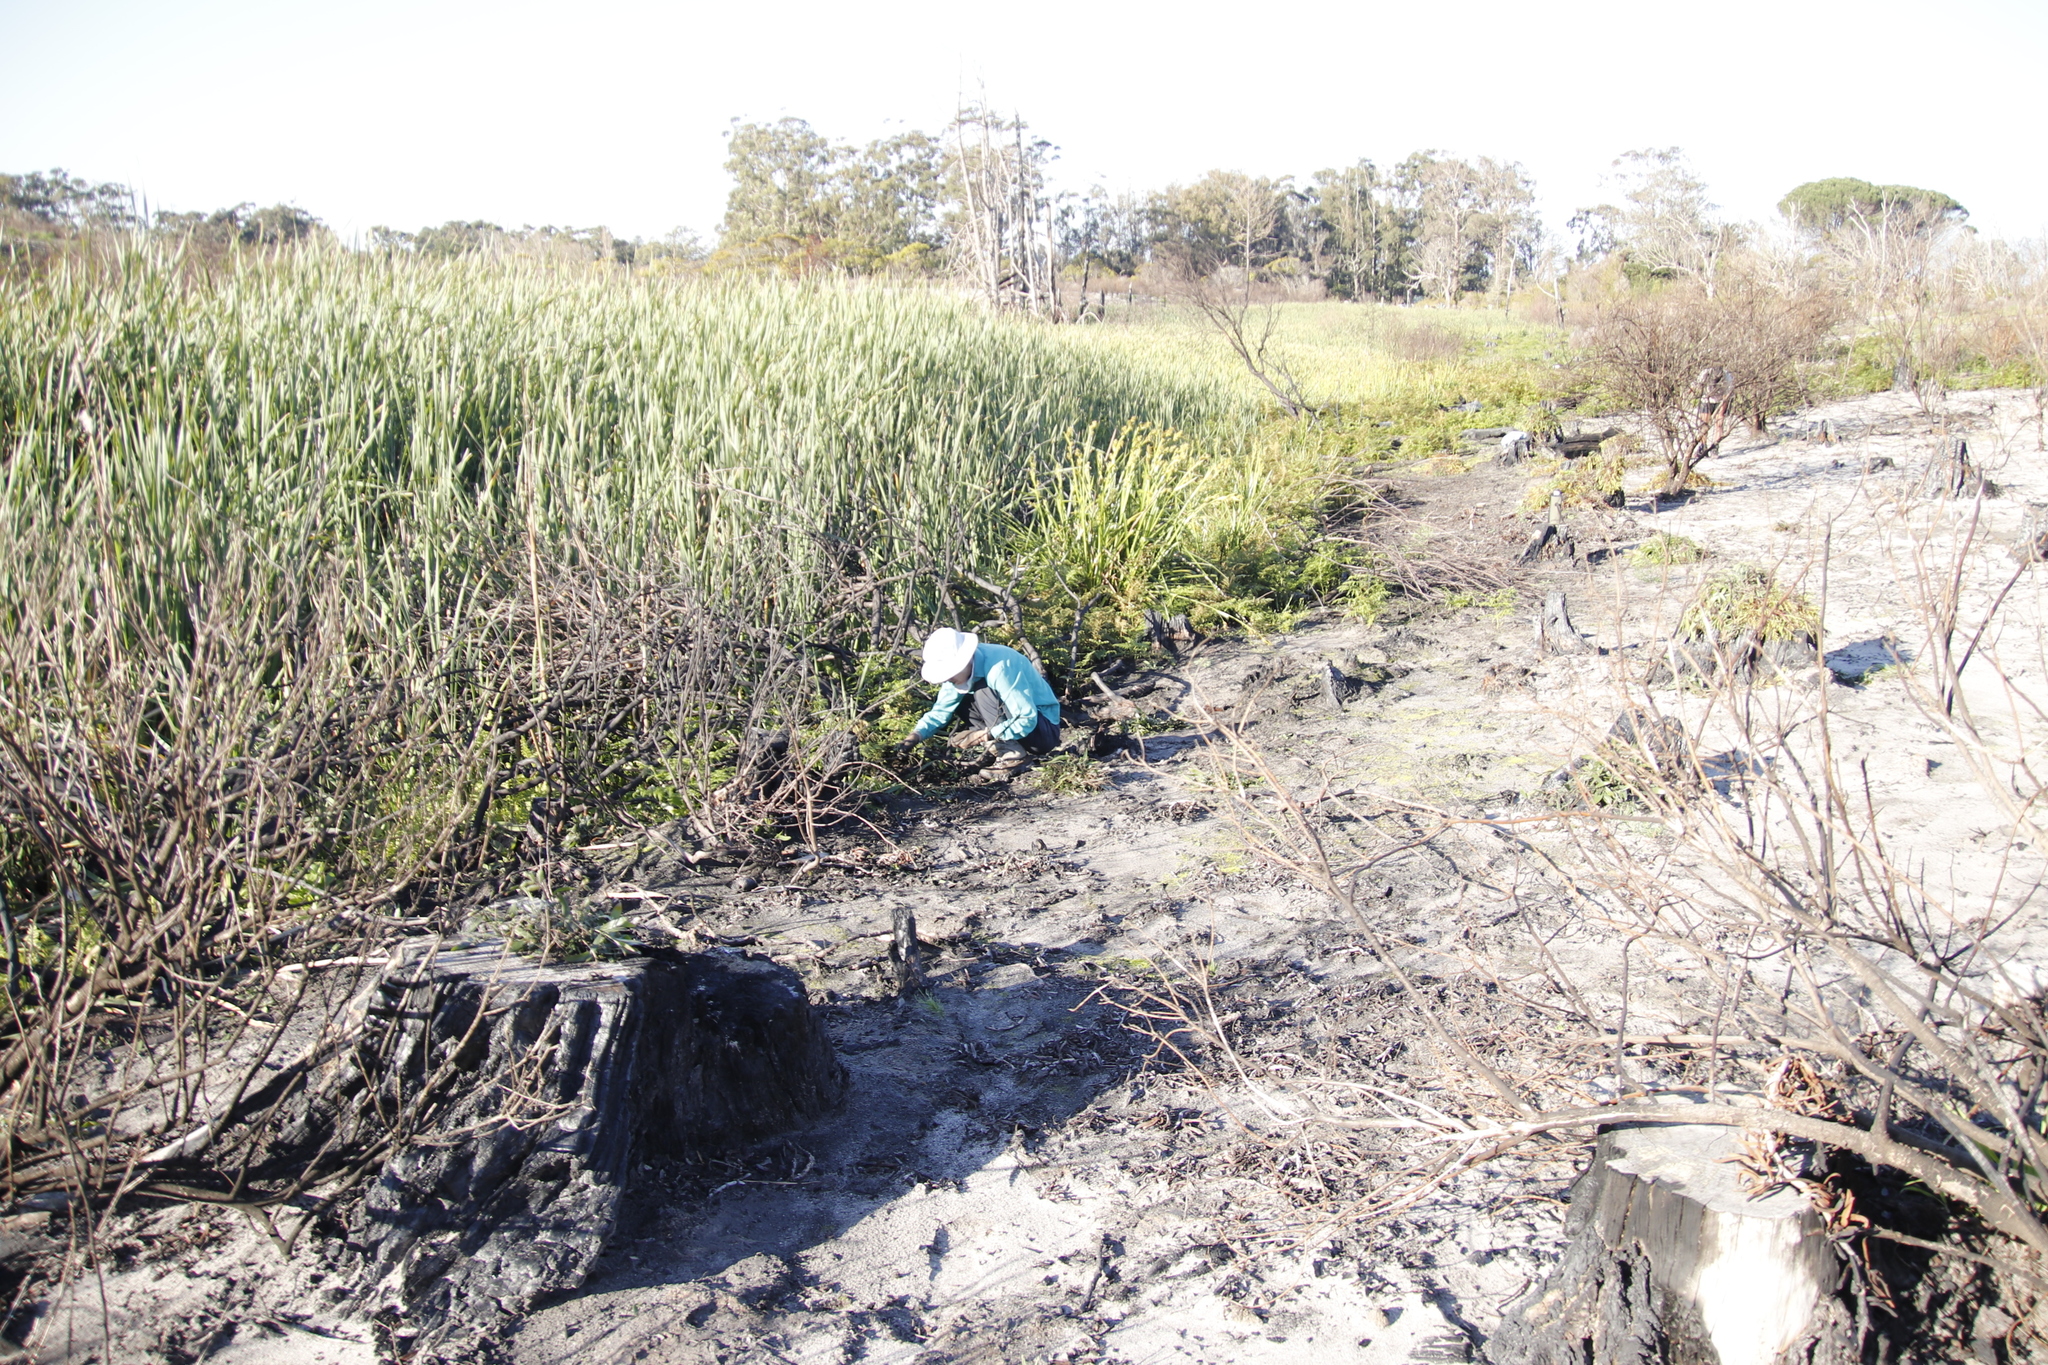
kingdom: Plantae
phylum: Tracheophyta
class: Liliopsida
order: Poales
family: Cyperaceae
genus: Carpha
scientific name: Carpha glomerata
